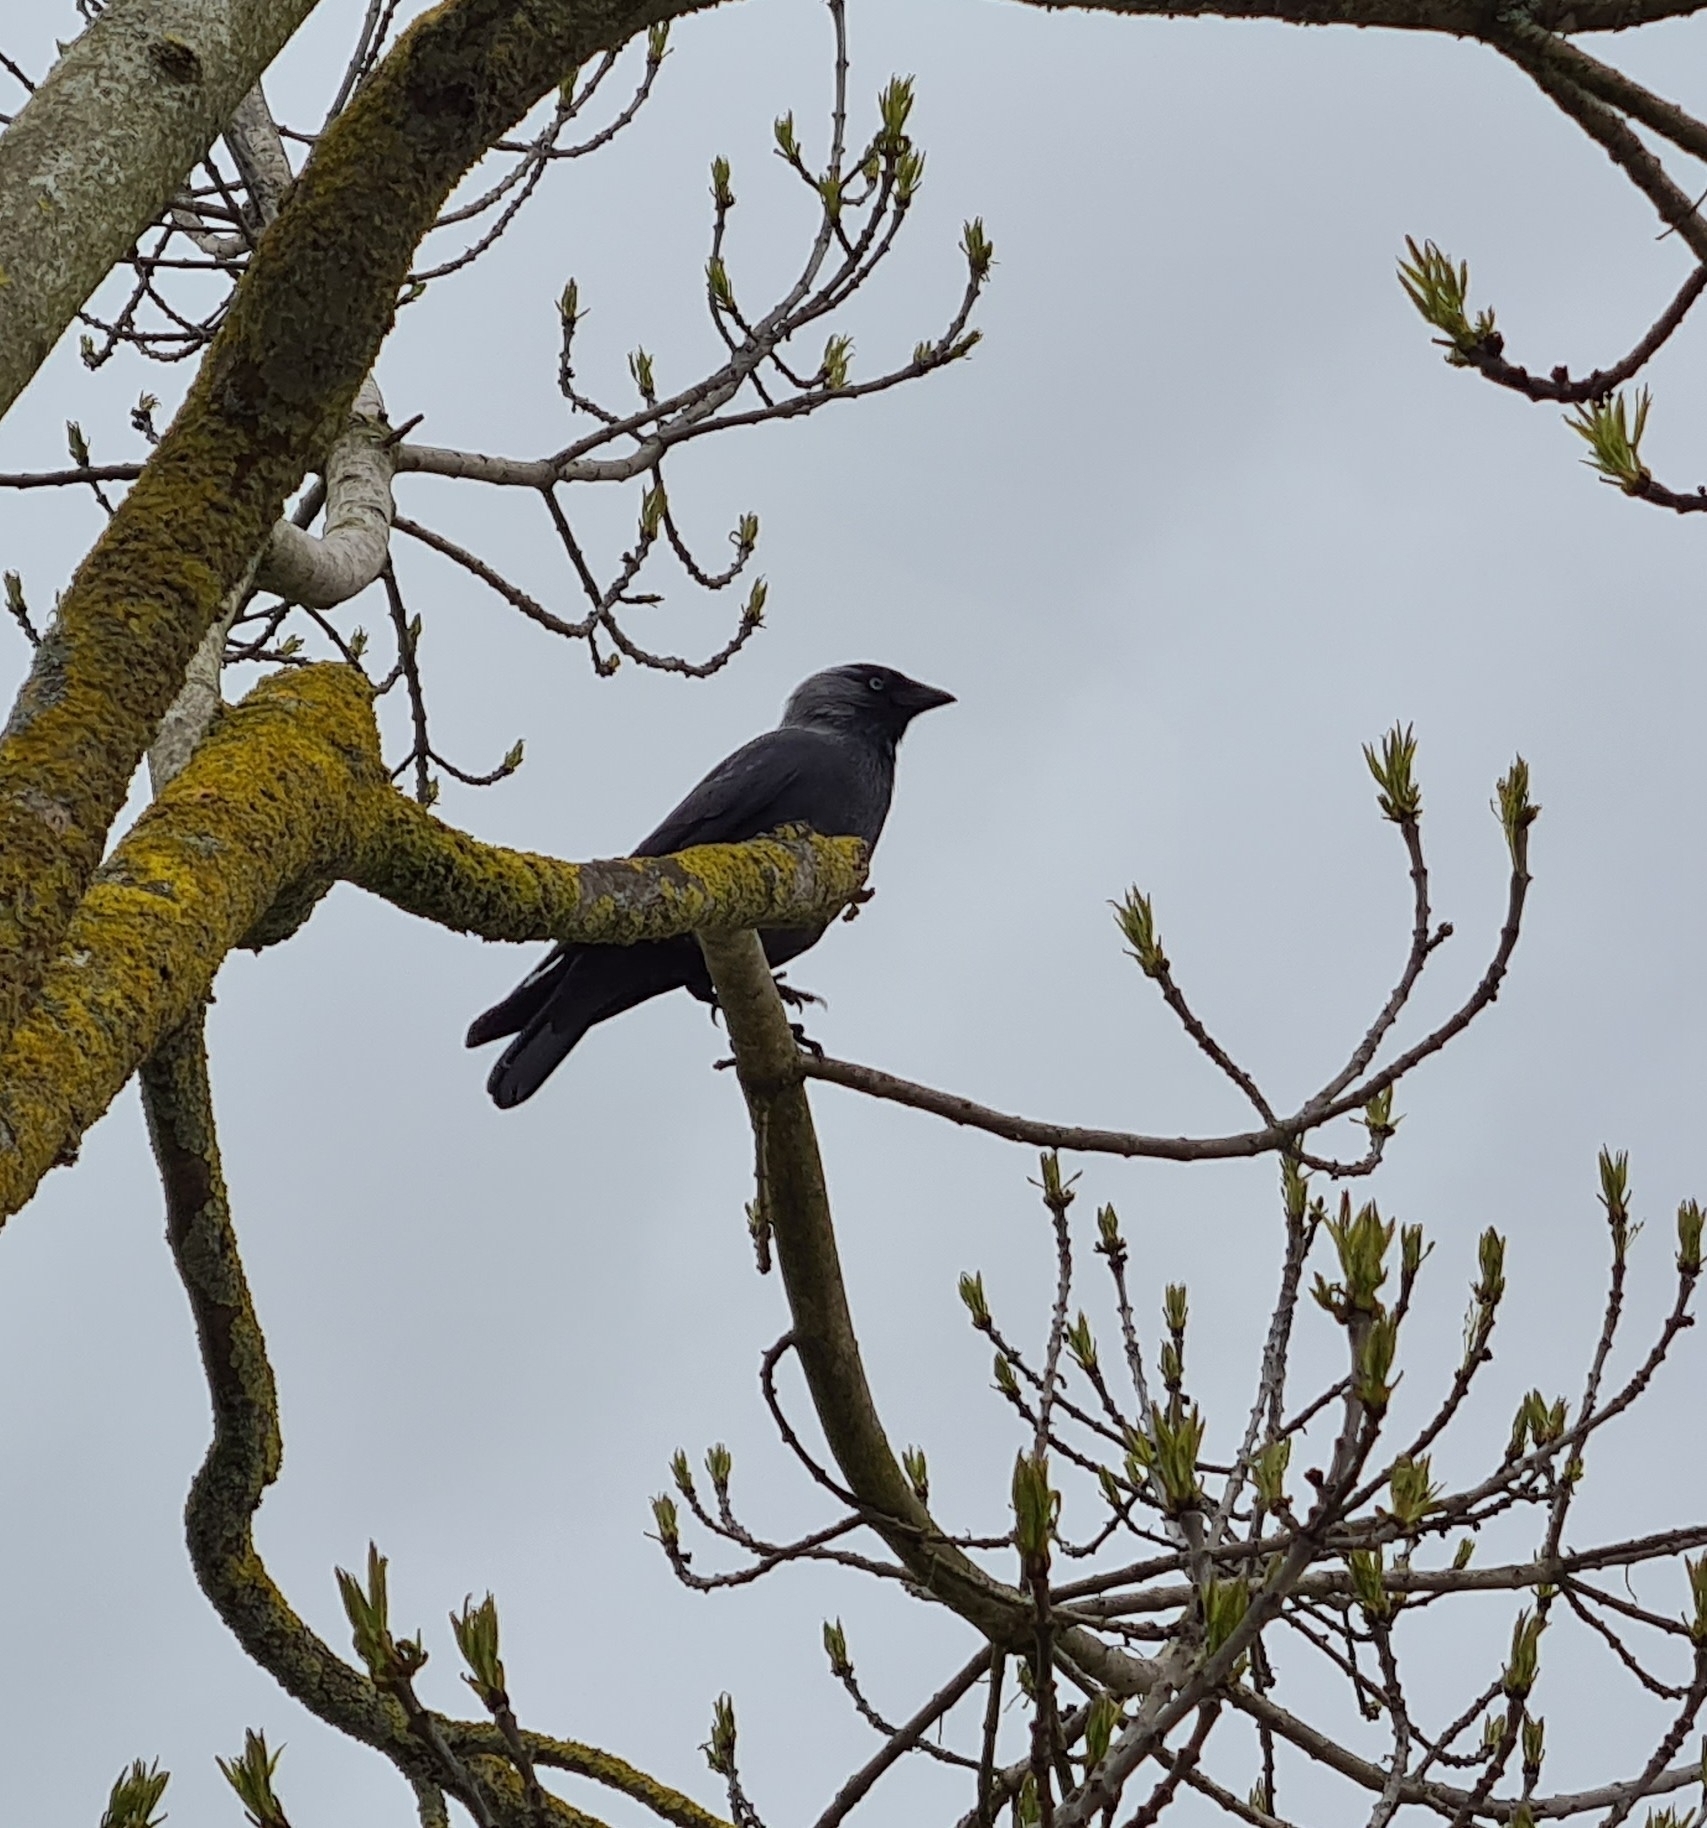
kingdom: Animalia
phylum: Chordata
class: Aves
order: Passeriformes
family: Corvidae
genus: Coloeus
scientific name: Coloeus monedula
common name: Western jackdaw
